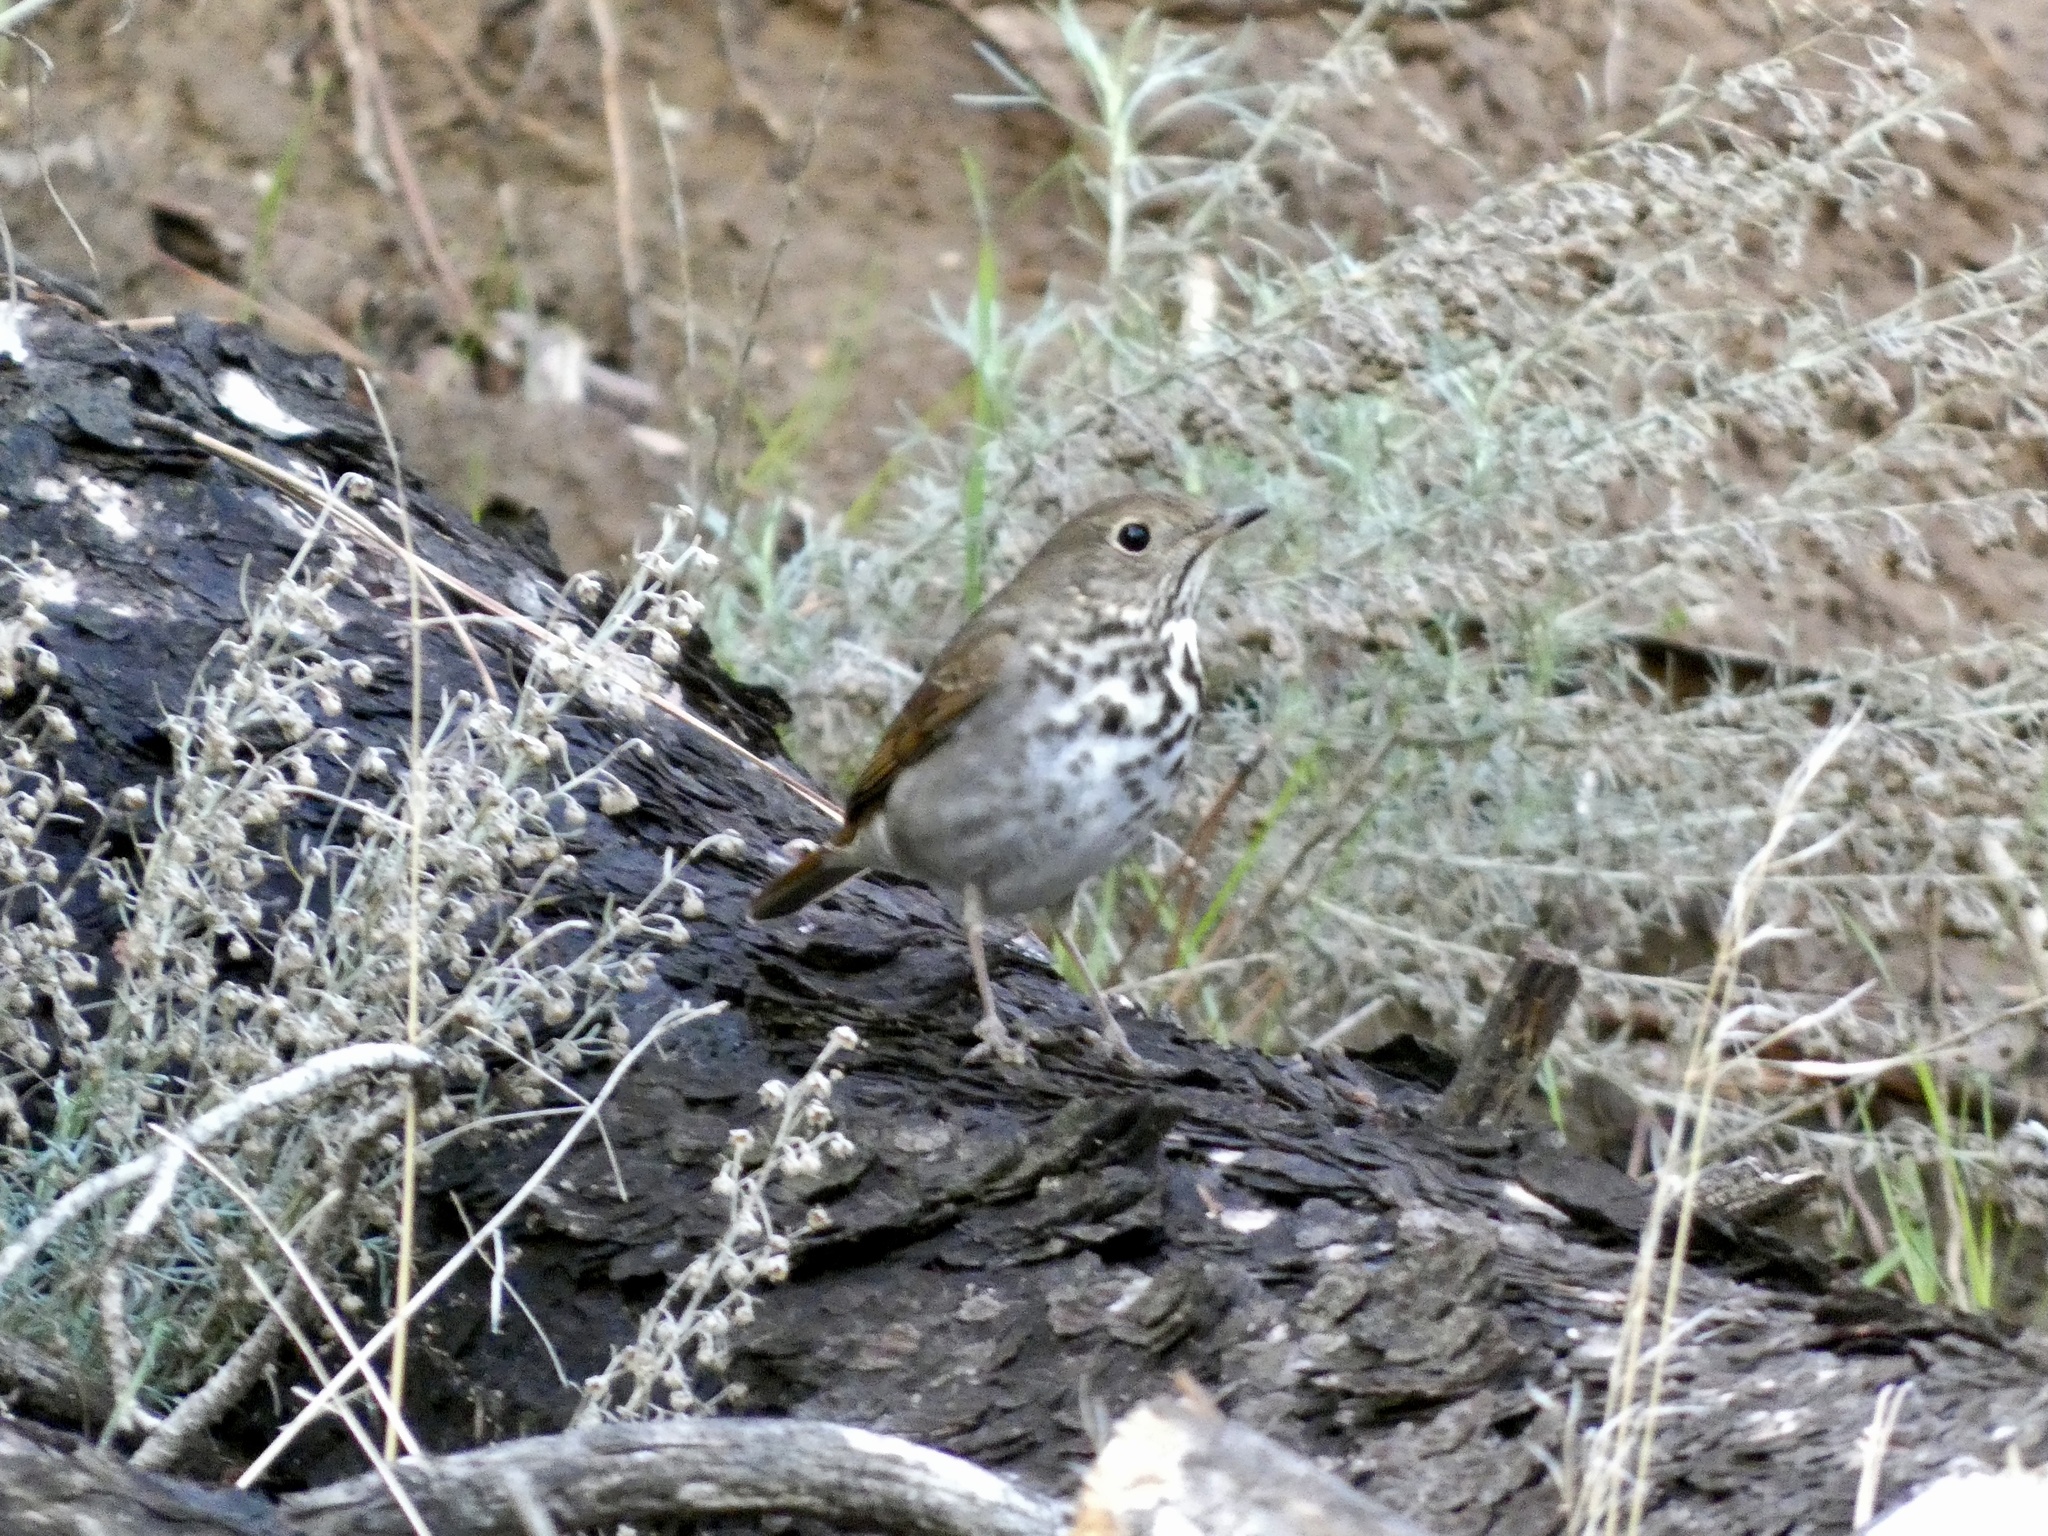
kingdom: Animalia
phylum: Chordata
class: Aves
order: Passeriformes
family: Turdidae
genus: Catharus
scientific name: Catharus guttatus
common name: Hermit thrush
